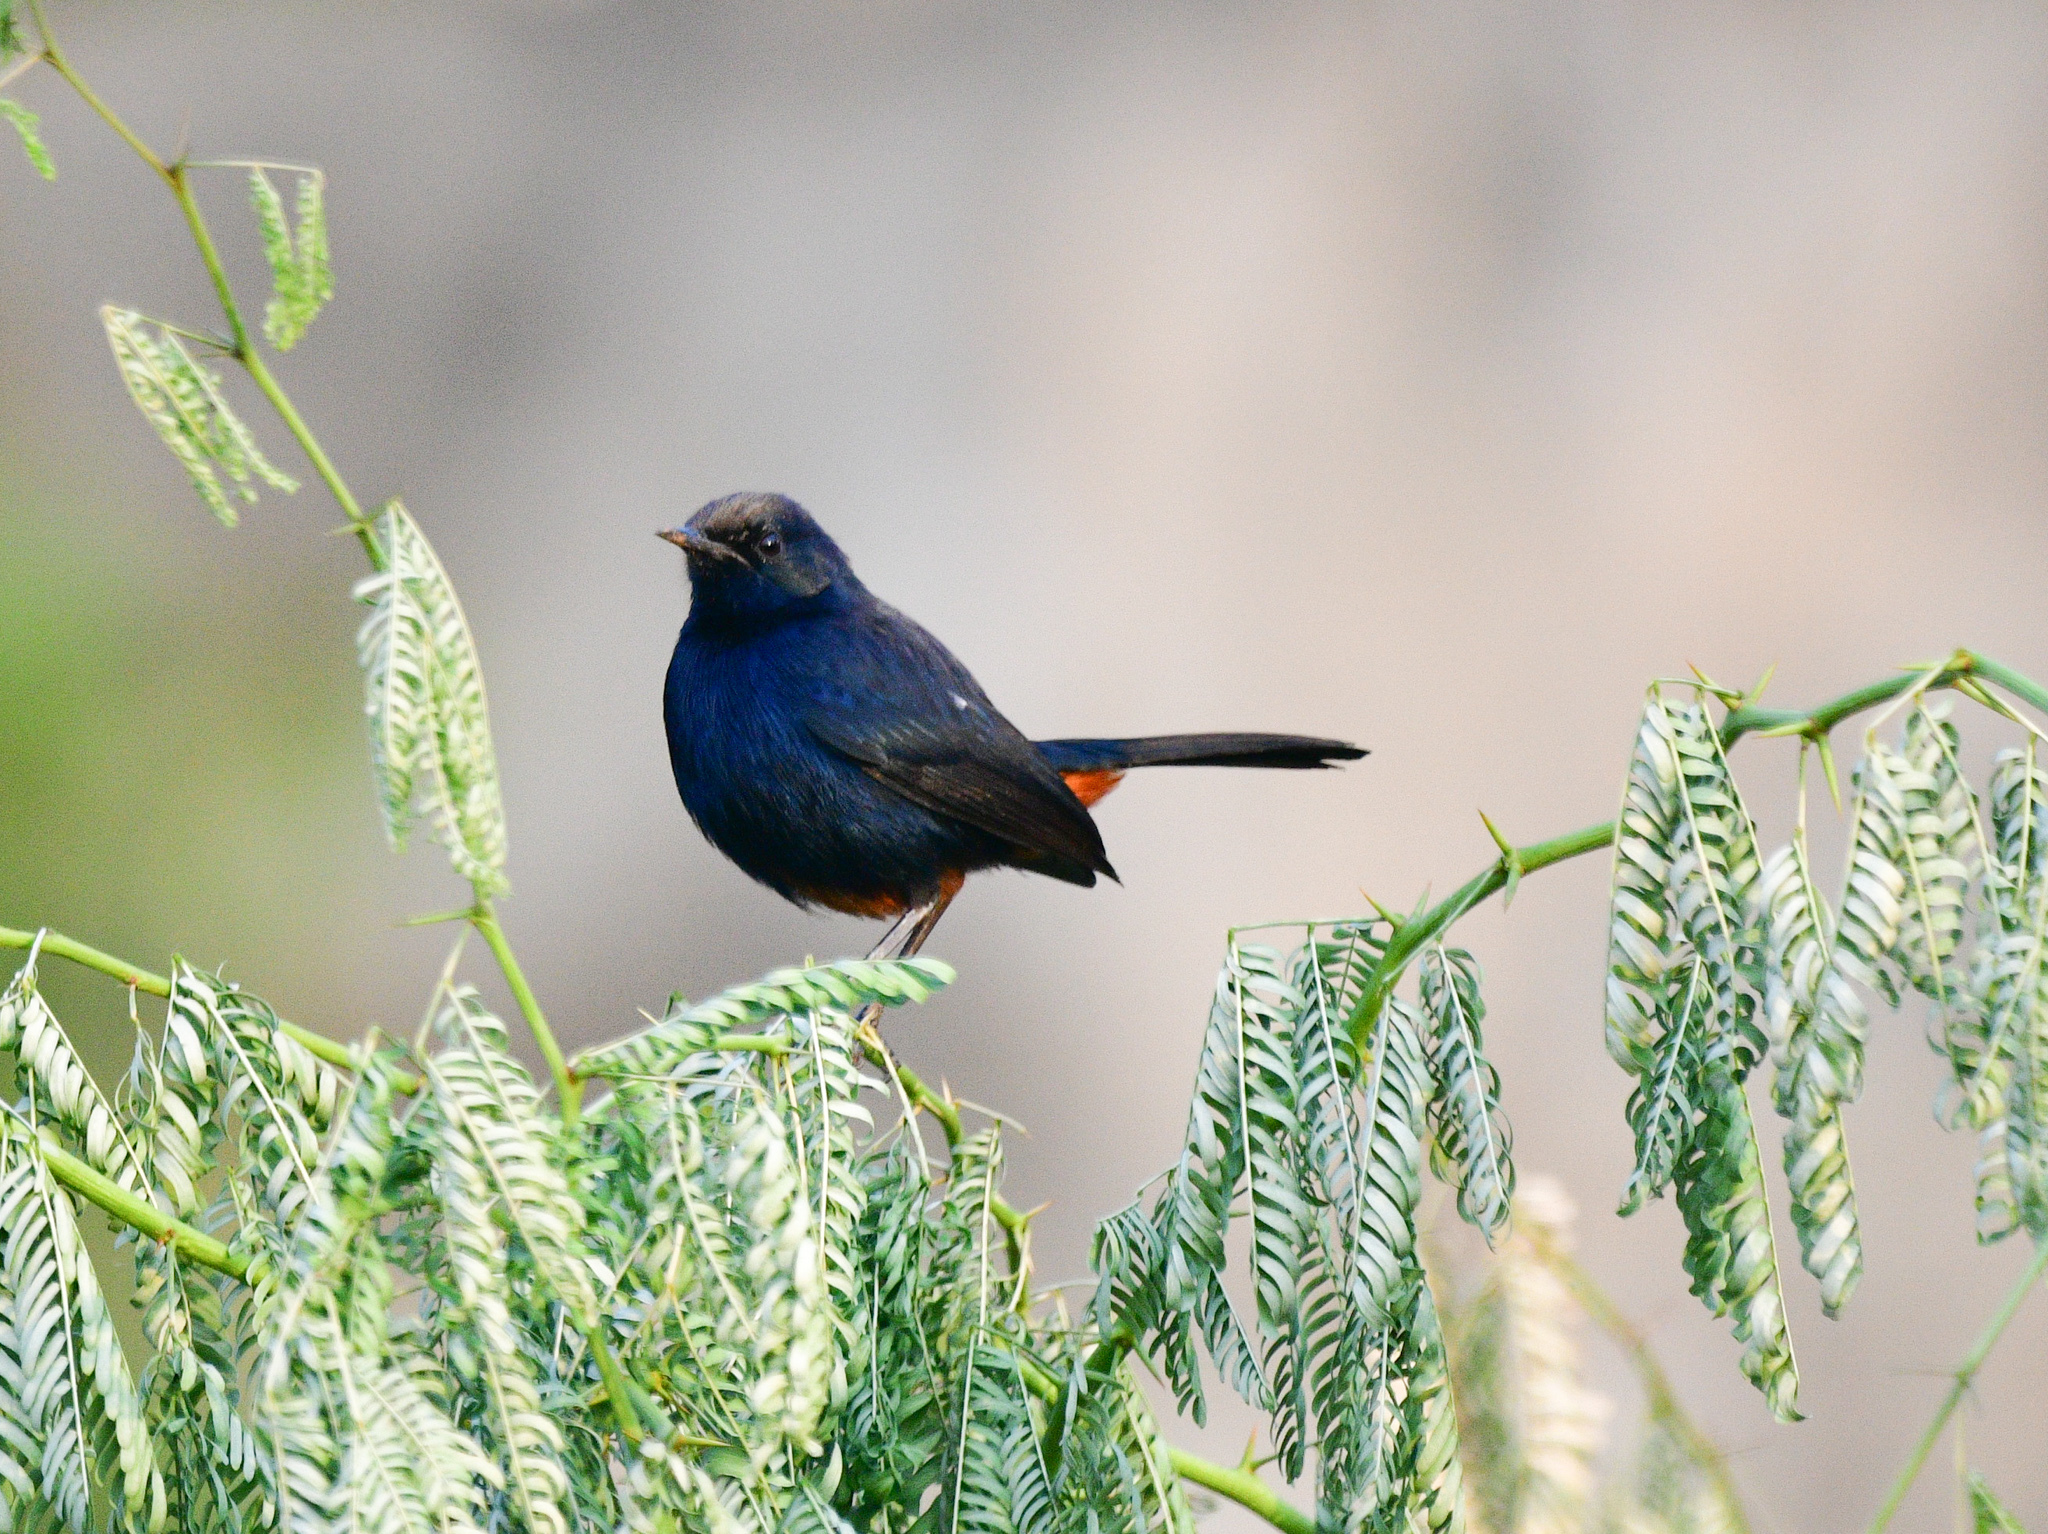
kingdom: Animalia
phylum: Chordata
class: Aves
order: Passeriformes
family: Muscicapidae
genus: Saxicoloides
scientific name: Saxicoloides fulicatus
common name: Indian robin
